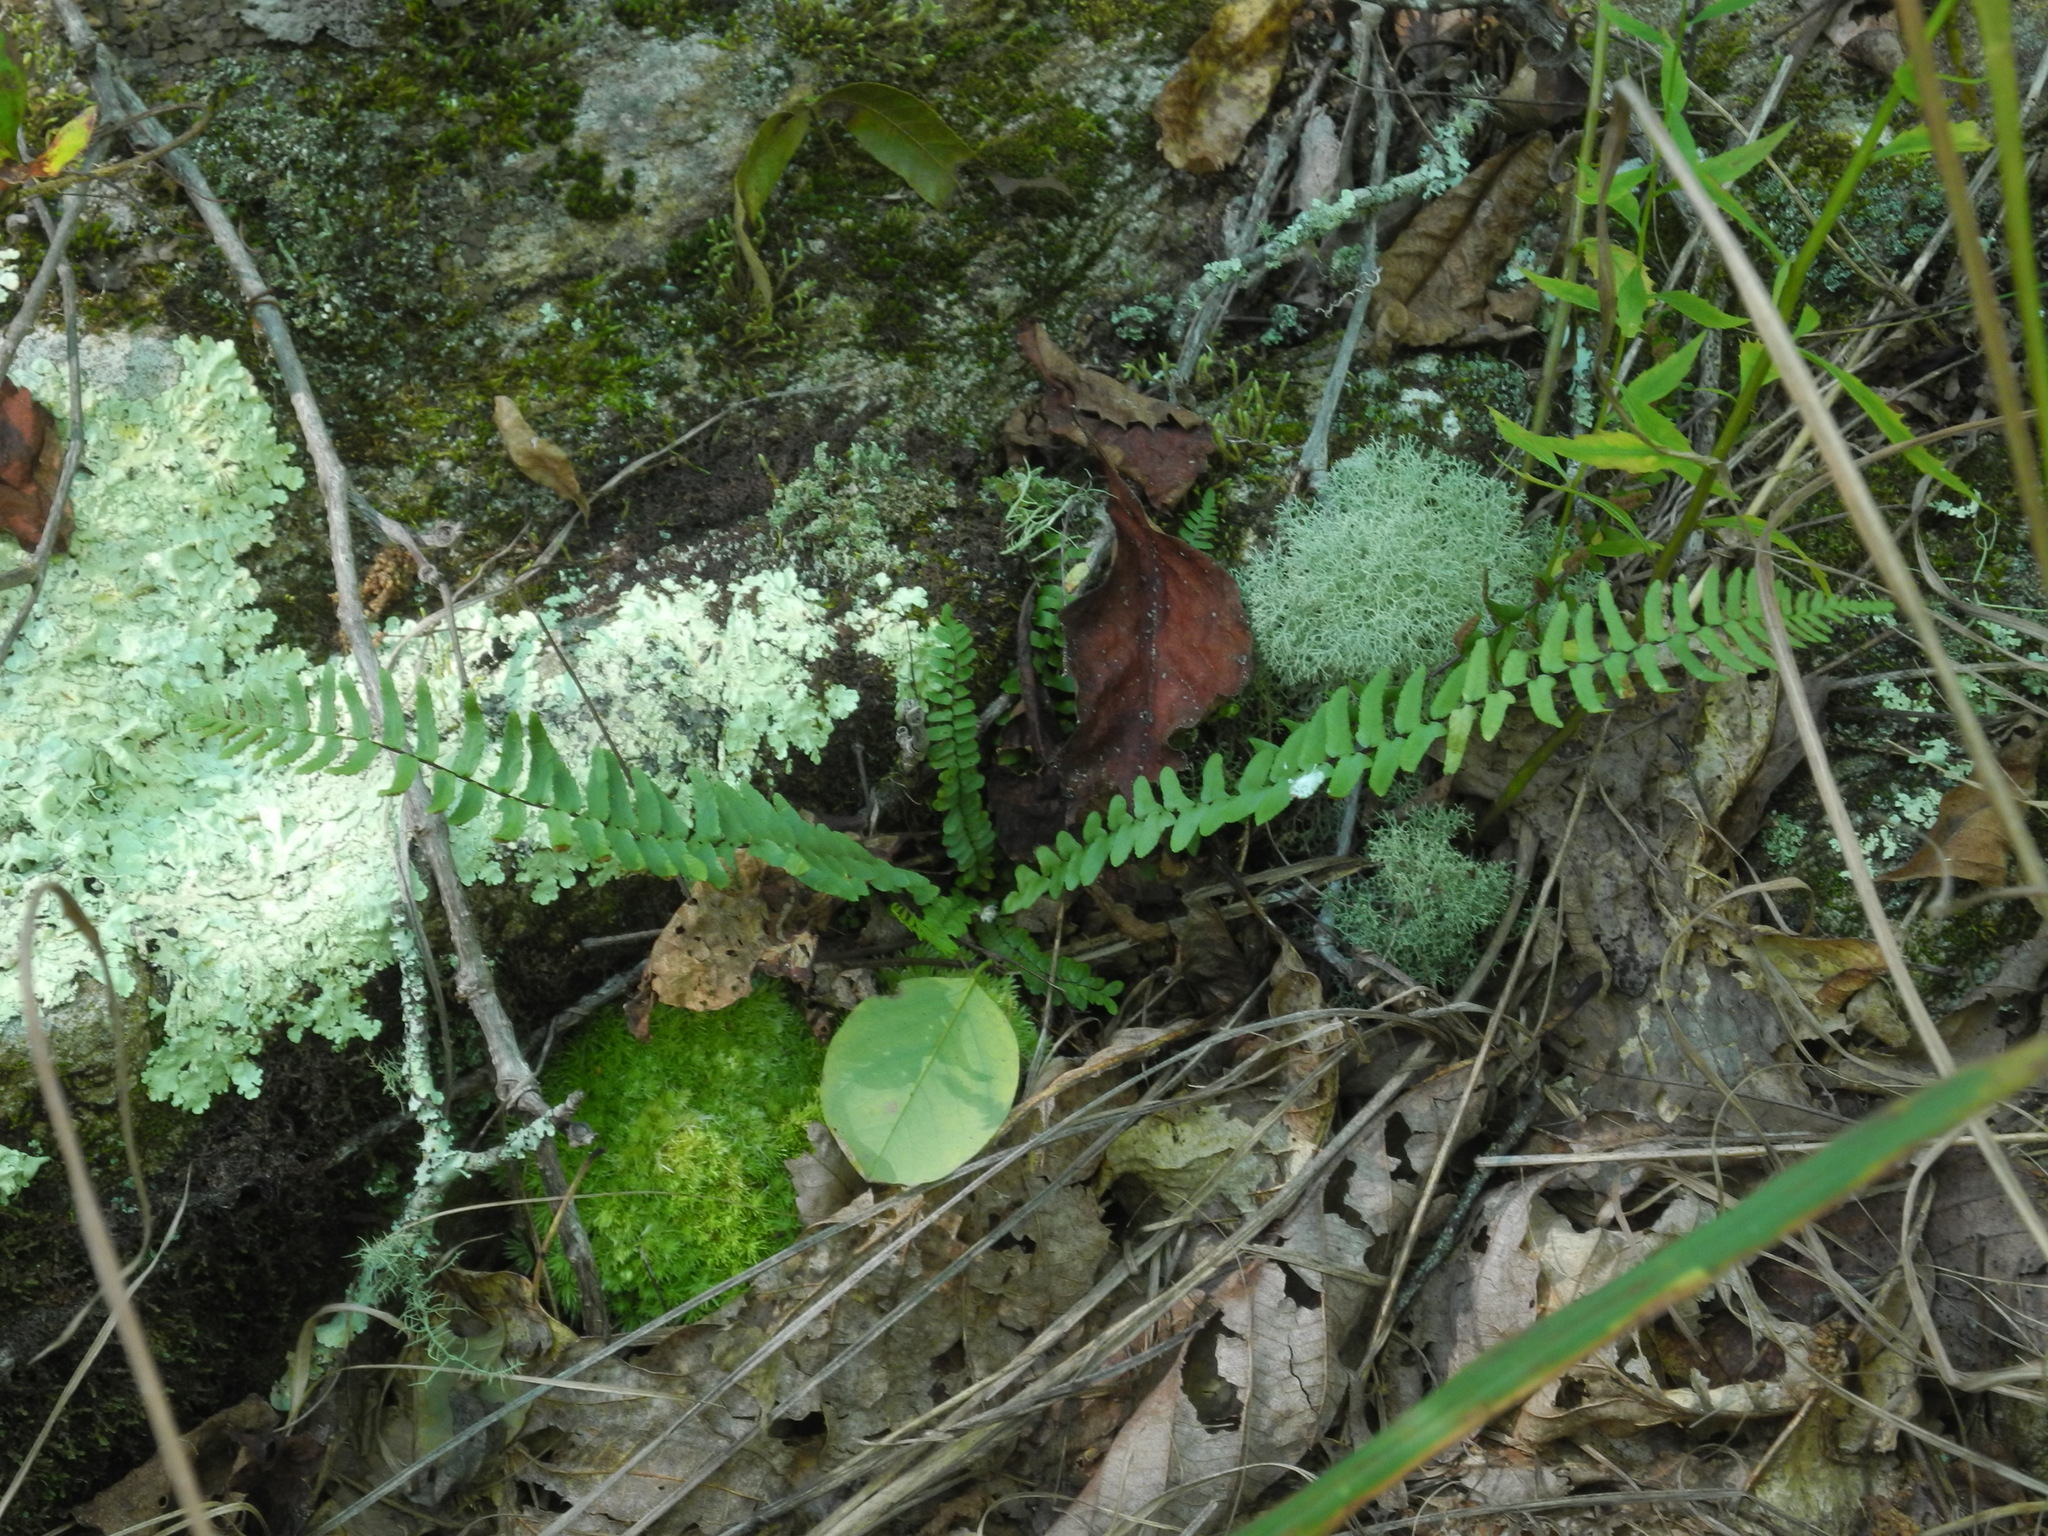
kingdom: Plantae
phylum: Tracheophyta
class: Polypodiopsida
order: Polypodiales
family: Aspleniaceae
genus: Asplenium
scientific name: Asplenium platyneuron
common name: Ebony spleenwort
